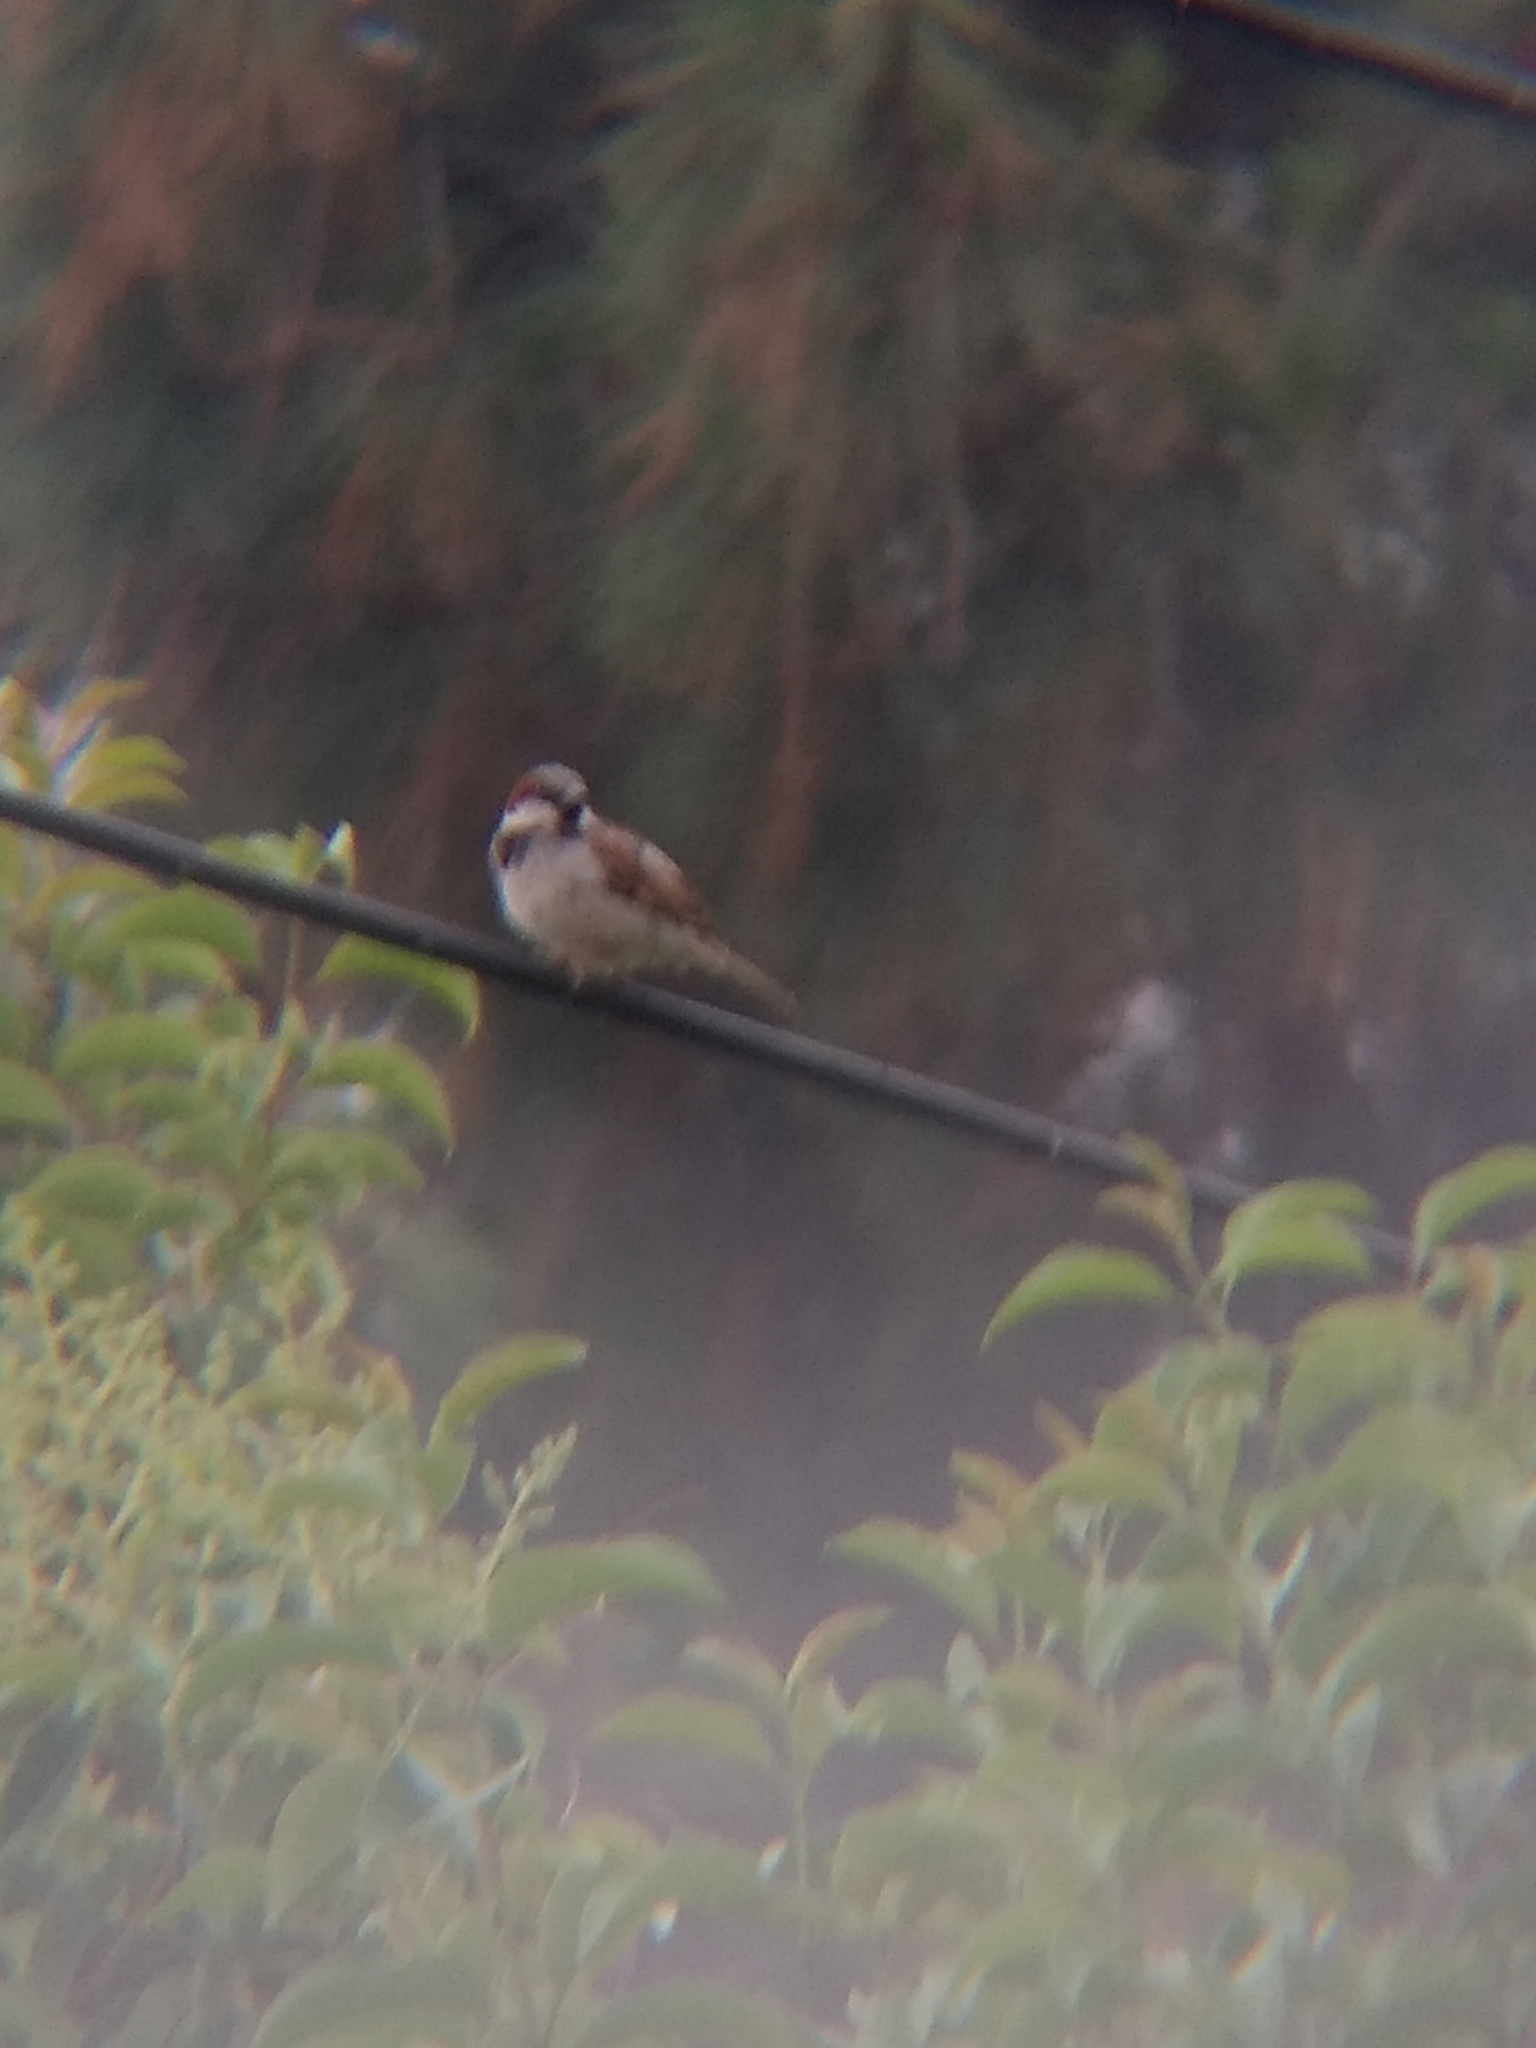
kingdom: Animalia
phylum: Chordata
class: Aves
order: Passeriformes
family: Passeridae
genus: Passer
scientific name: Passer domesticus
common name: House sparrow
